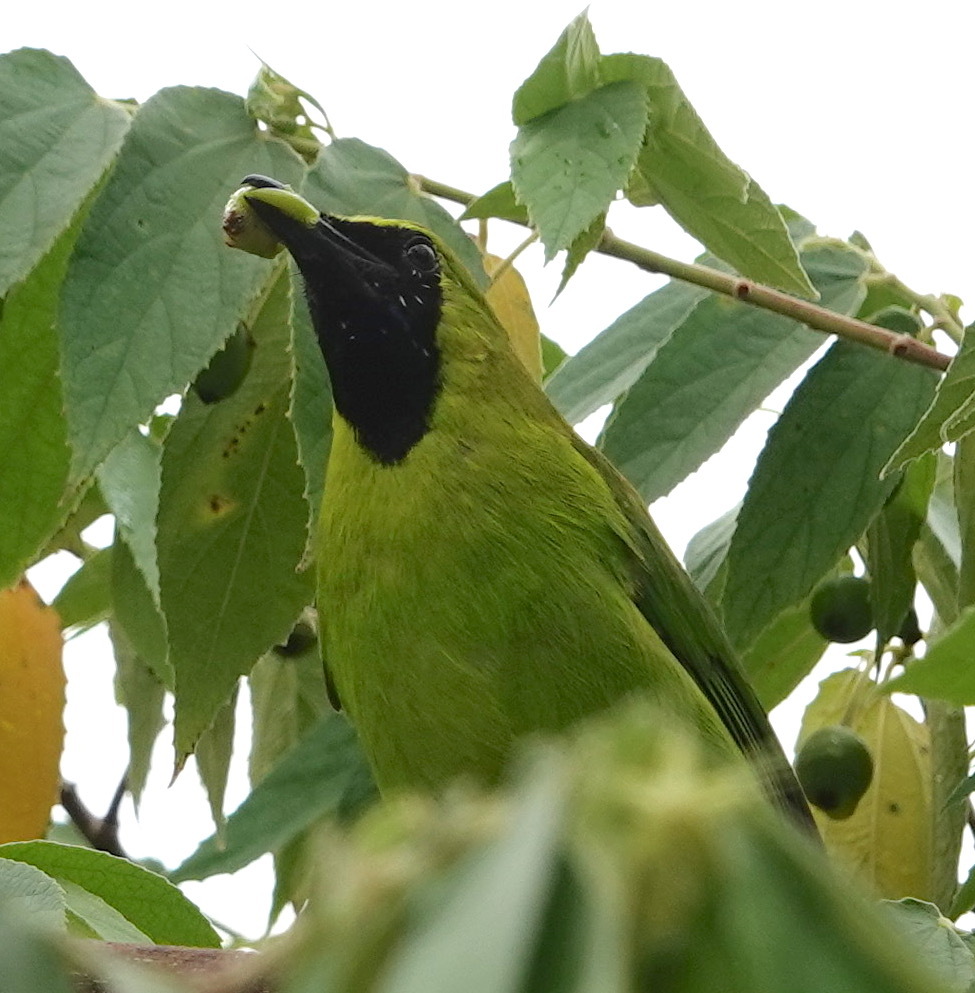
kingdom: Animalia
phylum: Chordata
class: Aves
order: Passeriformes
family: Chloropseidae
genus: Chloropsis
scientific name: Chloropsis cyanopogon
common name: Lesser green leafbird
